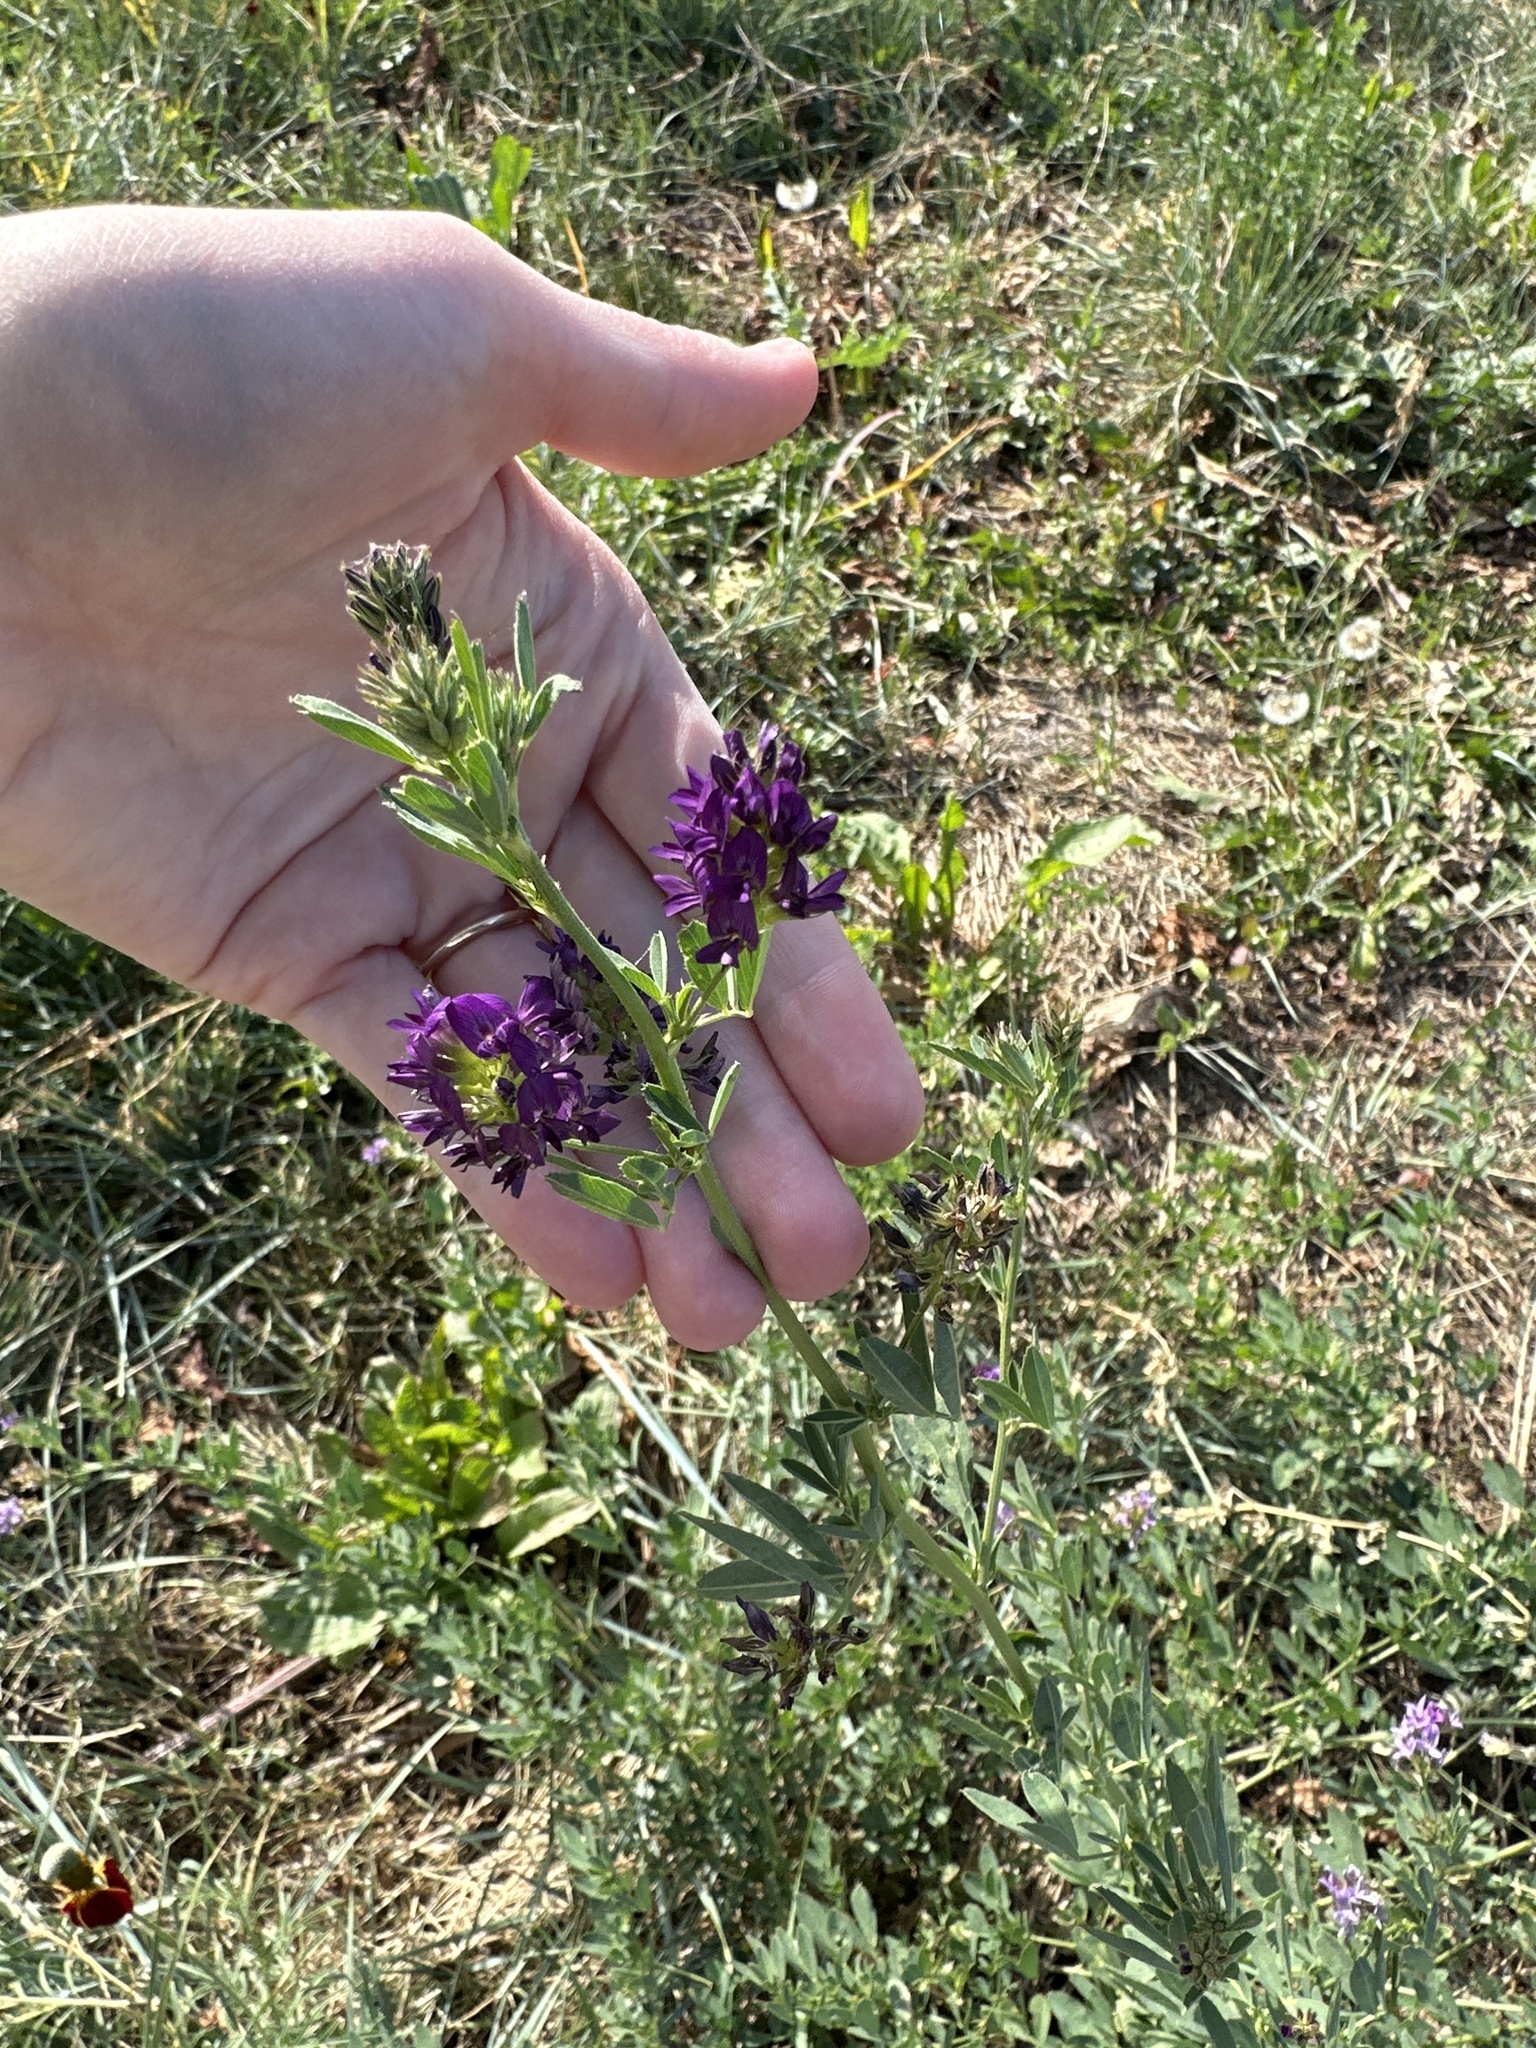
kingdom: Plantae
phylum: Tracheophyta
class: Magnoliopsida
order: Fabales
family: Fabaceae
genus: Medicago
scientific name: Medicago sativa
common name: Alfalfa
